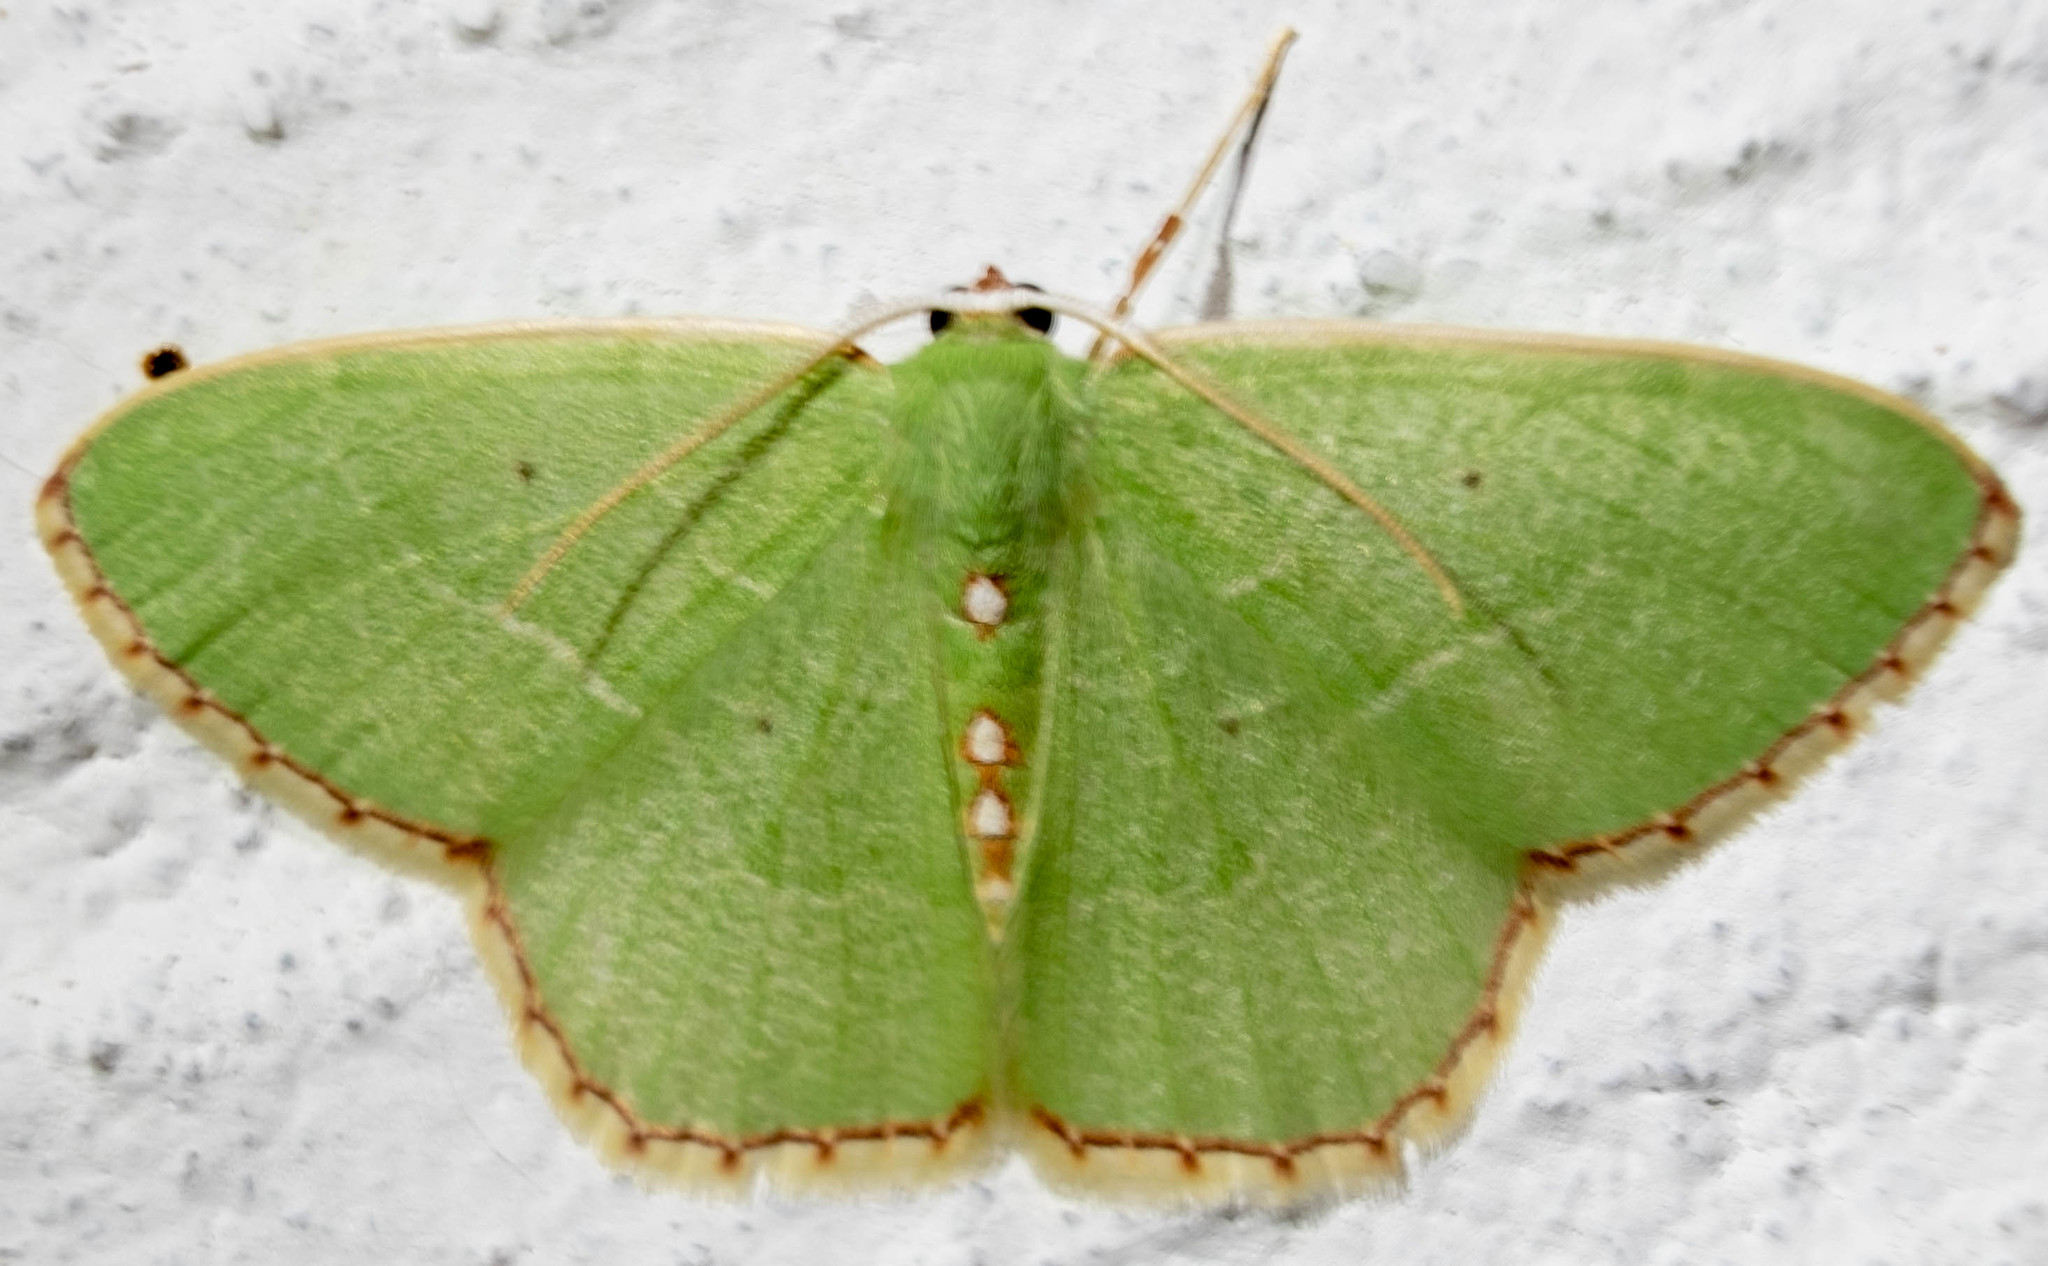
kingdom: Animalia
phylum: Arthropoda
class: Insecta
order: Lepidoptera
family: Geometridae
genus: Nemoria
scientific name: Nemoria lixaria
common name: Red-bordered emerald
